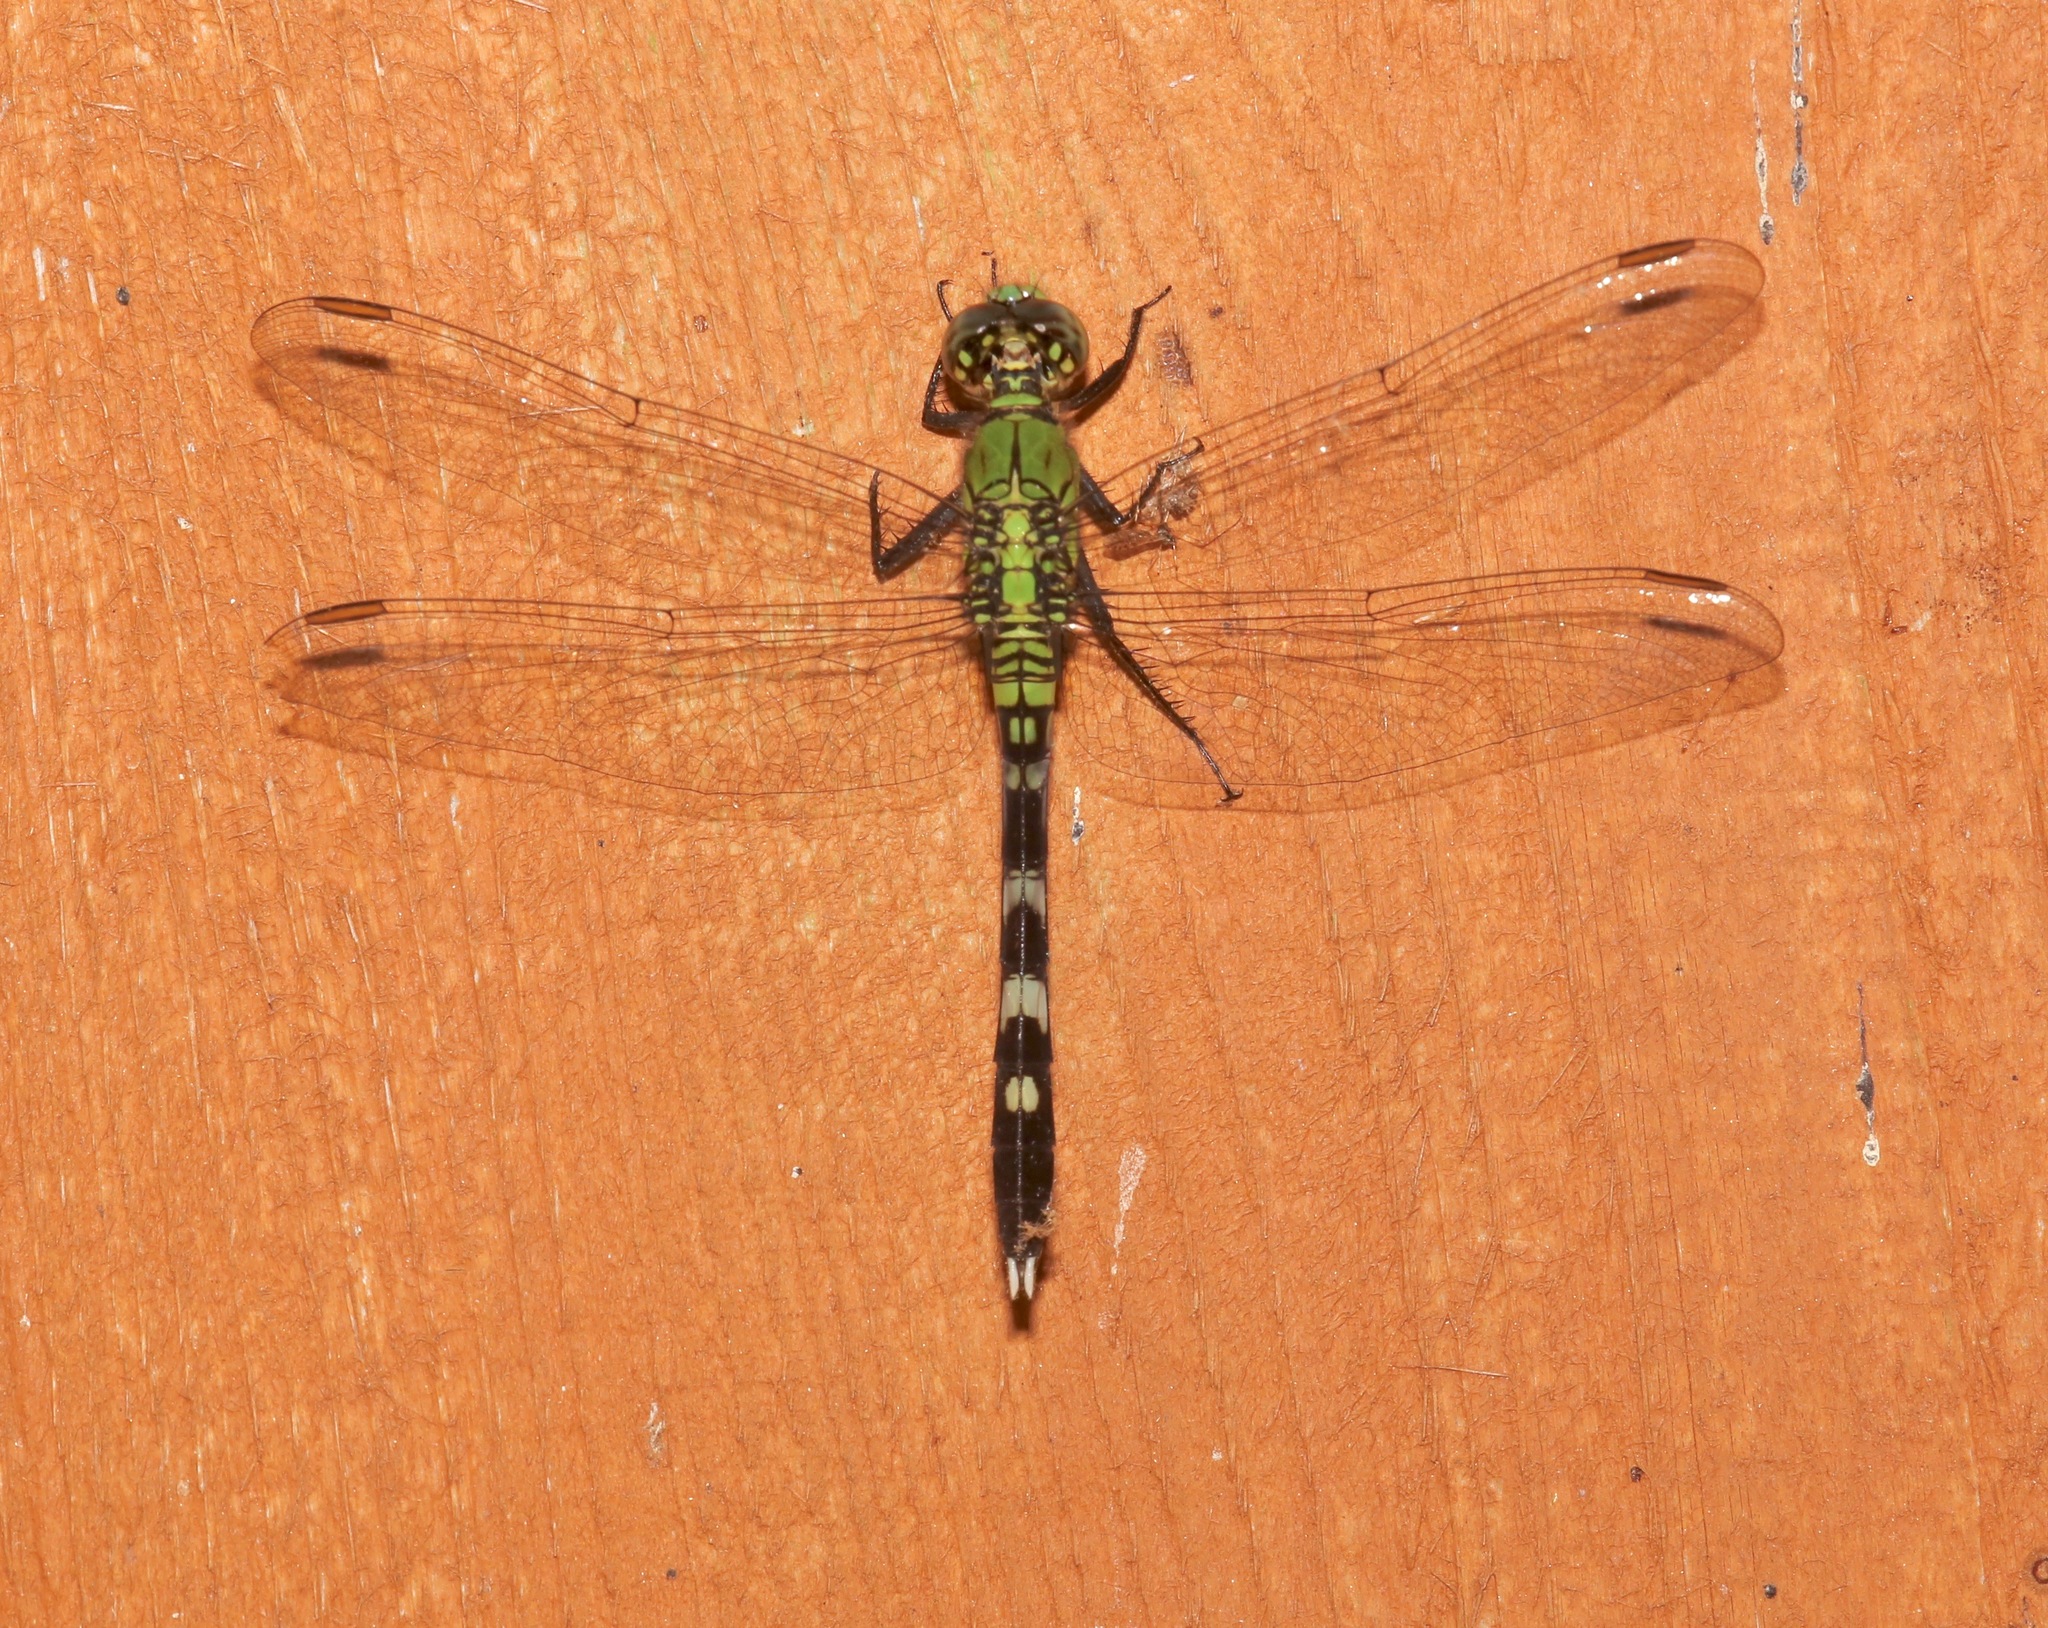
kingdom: Animalia
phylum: Arthropoda
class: Insecta
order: Odonata
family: Libellulidae
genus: Erythemis
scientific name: Erythemis simplicicollis
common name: Eastern pondhawk
